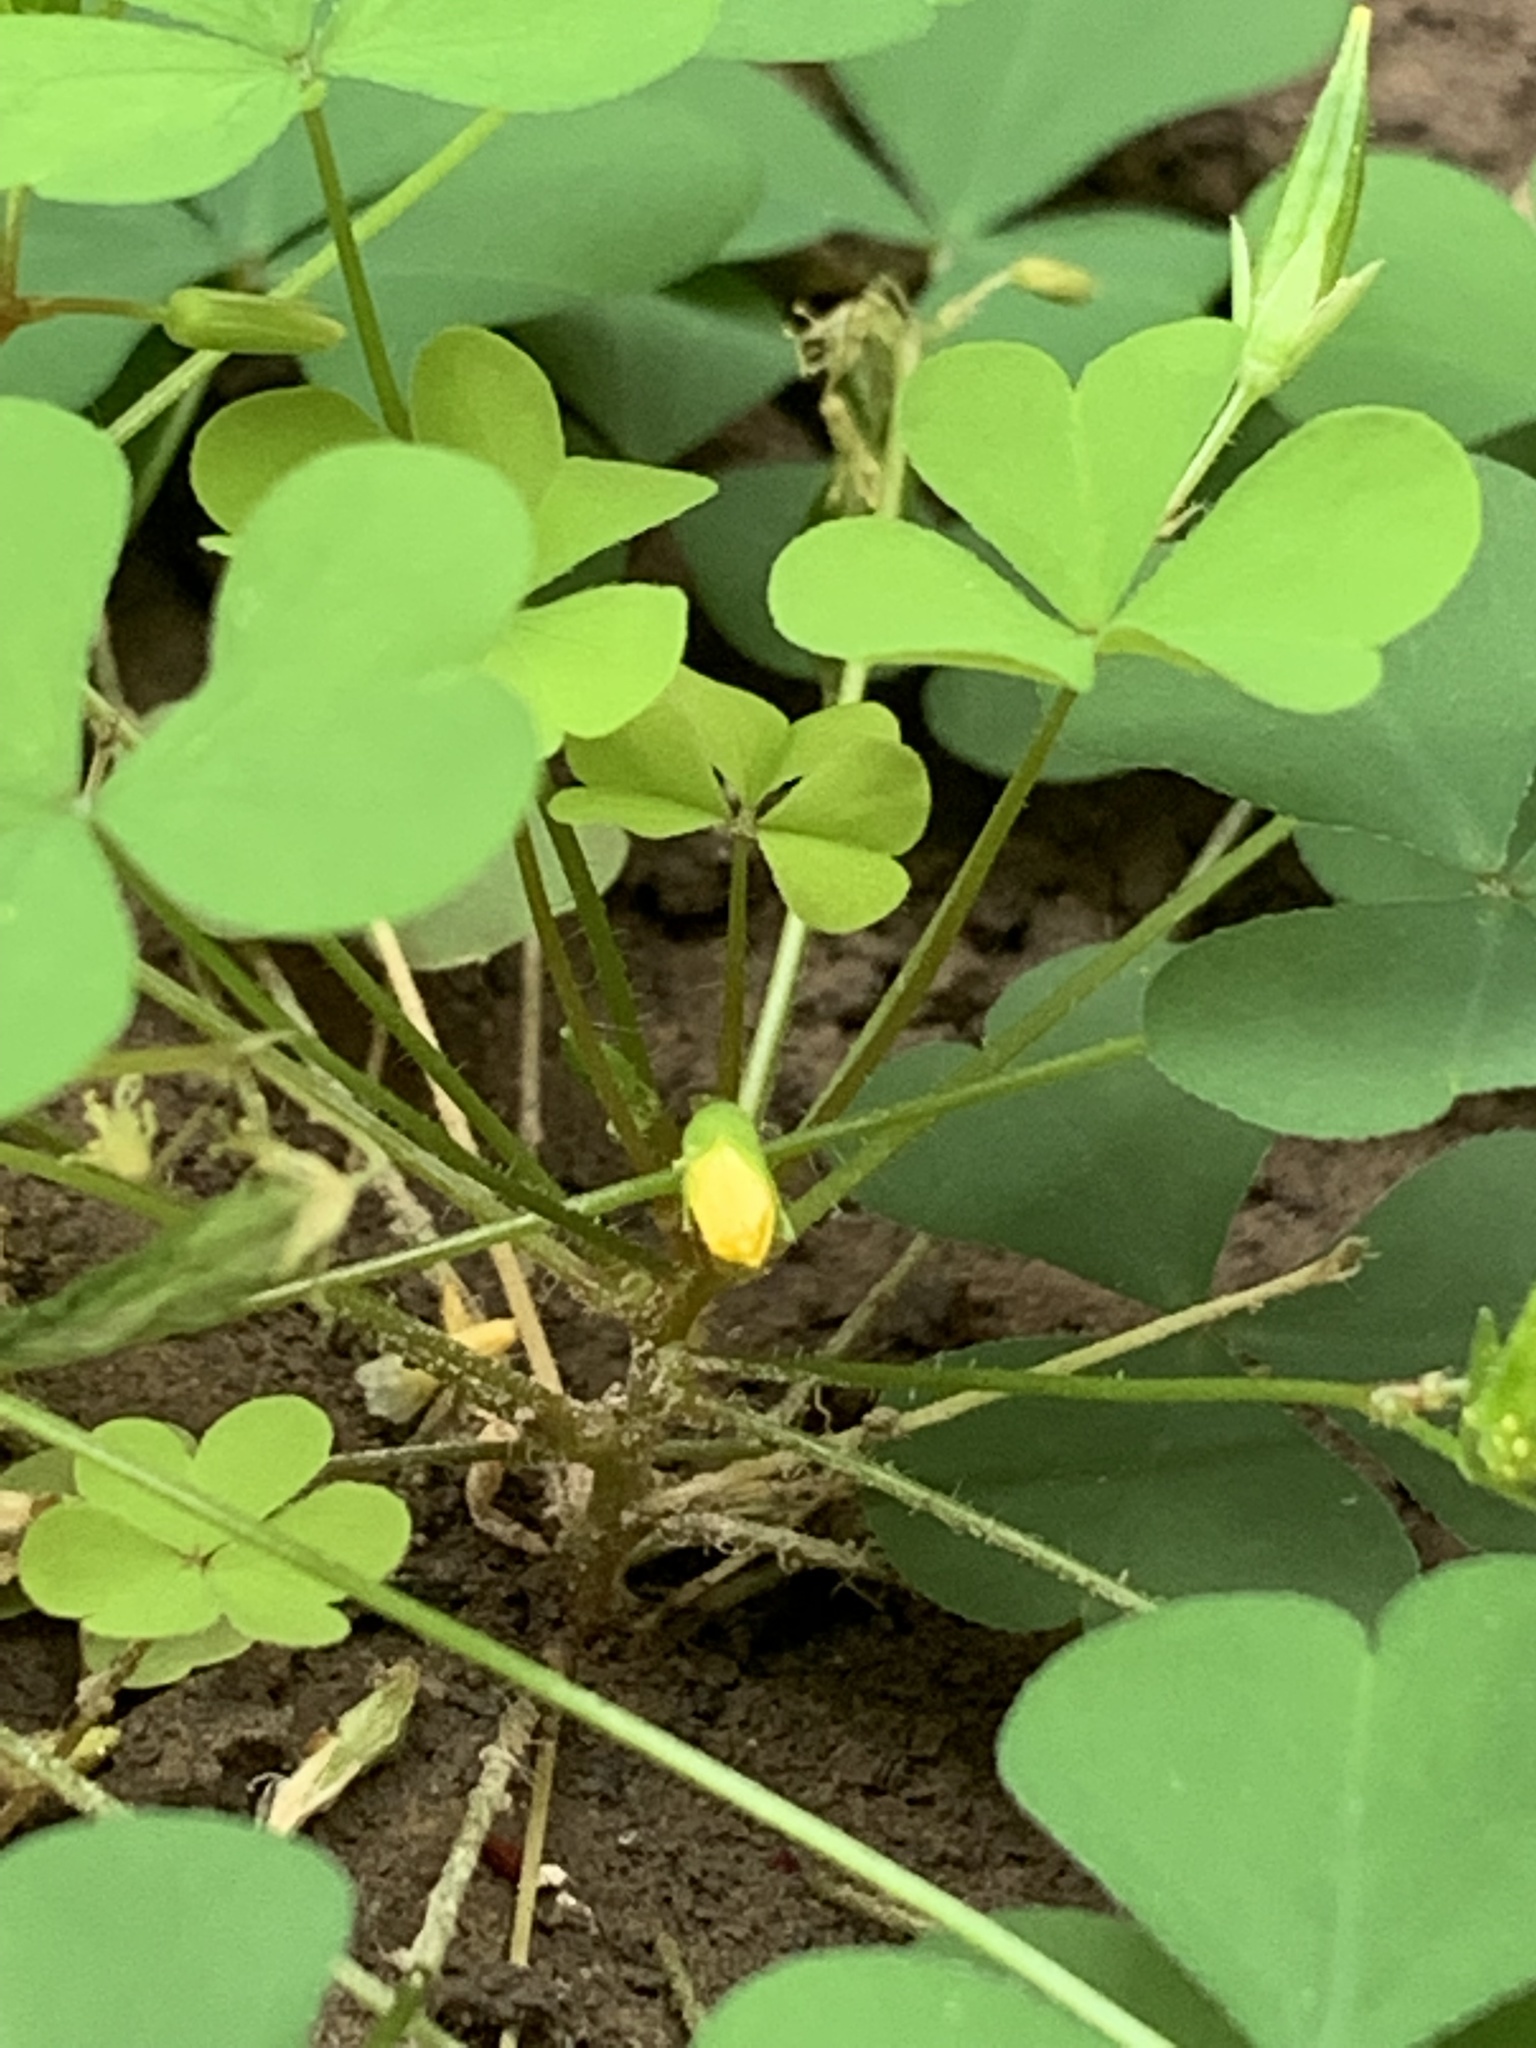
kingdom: Plantae
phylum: Tracheophyta
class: Magnoliopsida
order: Oxalidales
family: Oxalidaceae
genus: Oxalis
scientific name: Oxalis stricta
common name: Upright yellow-sorrel
